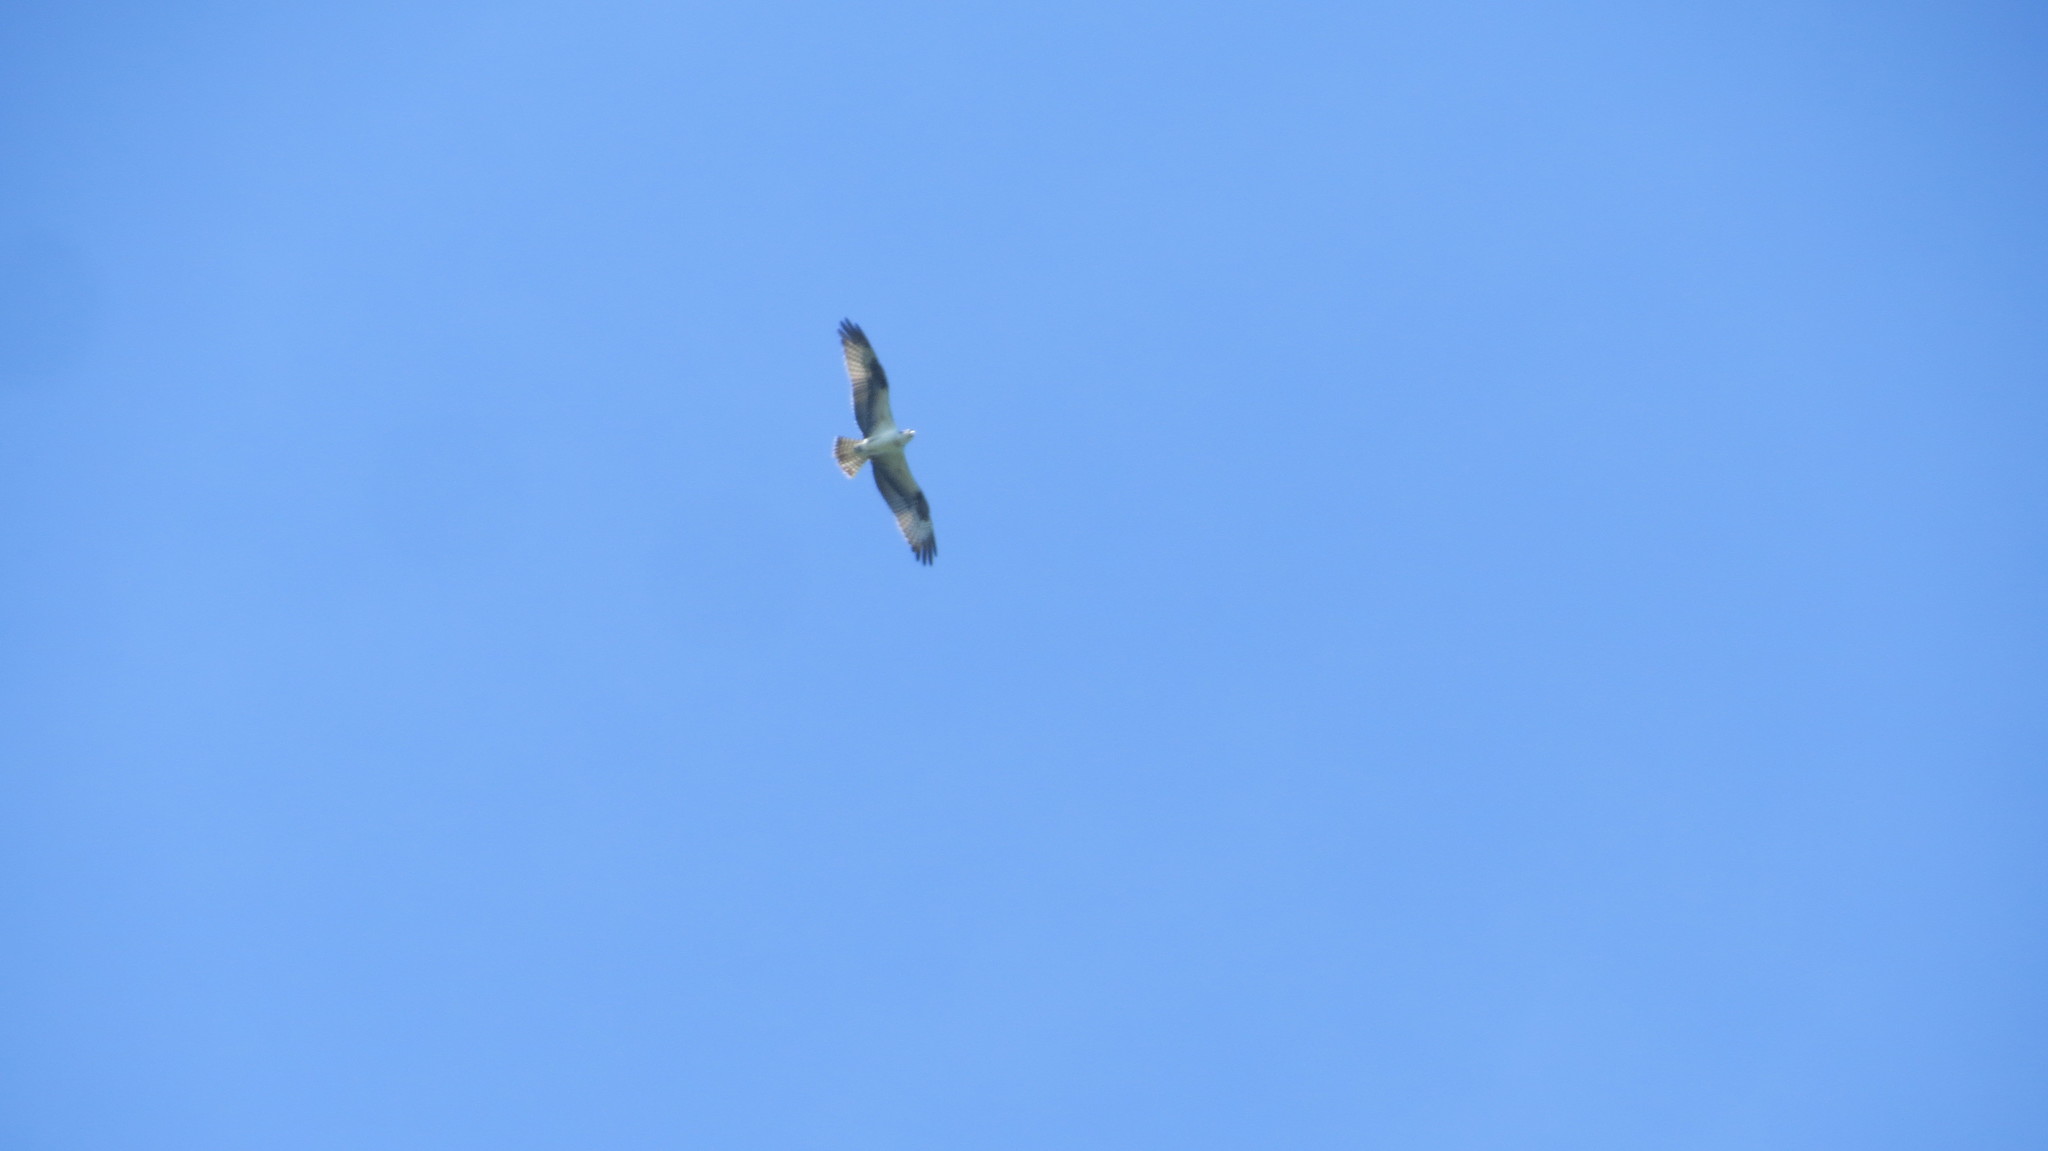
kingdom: Animalia
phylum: Chordata
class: Aves
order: Accipitriformes
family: Pandionidae
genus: Pandion
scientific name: Pandion haliaetus
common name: Osprey
